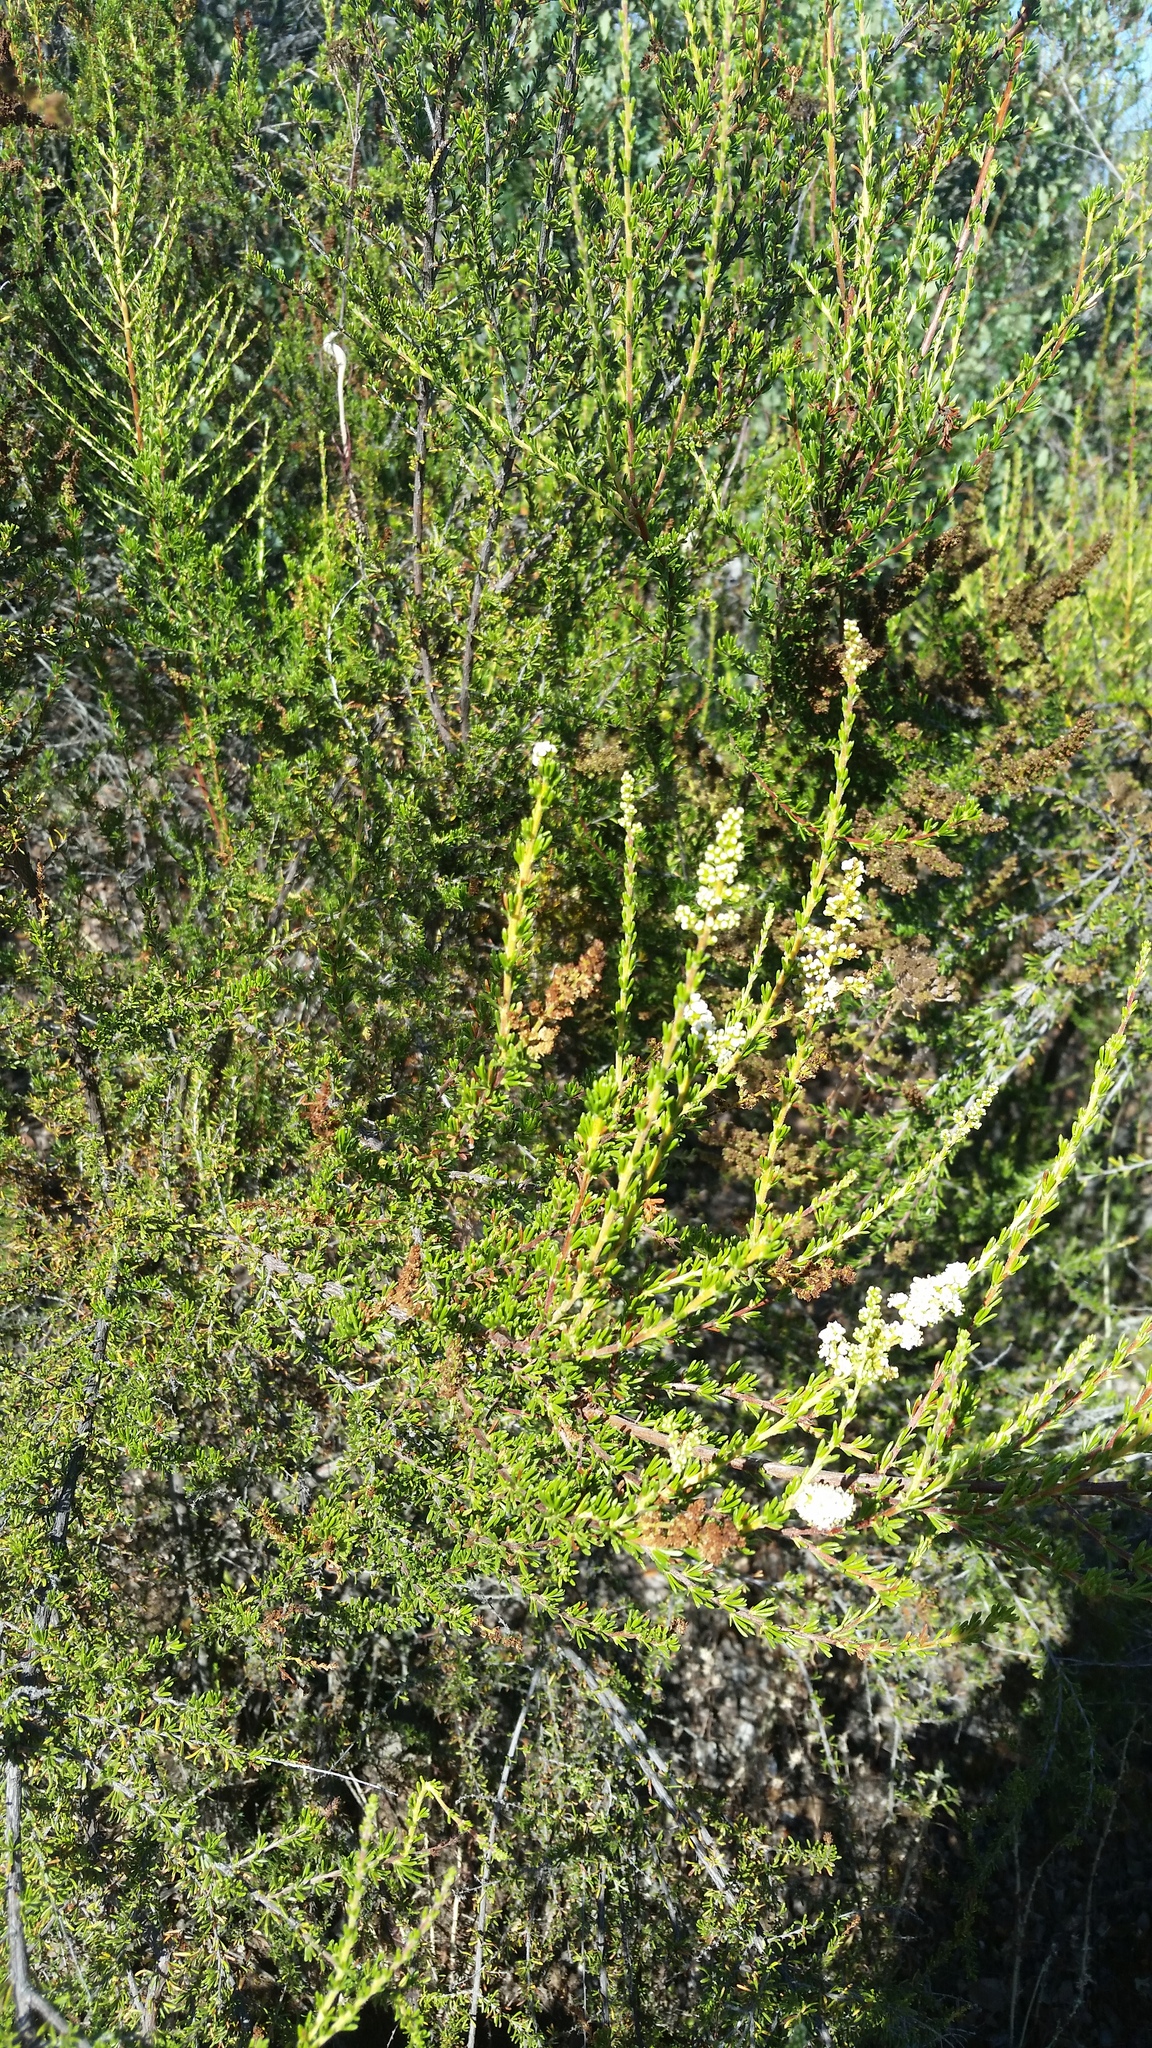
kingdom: Plantae
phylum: Tracheophyta
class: Magnoliopsida
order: Rosales
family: Rosaceae
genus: Adenostoma
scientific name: Adenostoma fasciculatum
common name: Chamise
